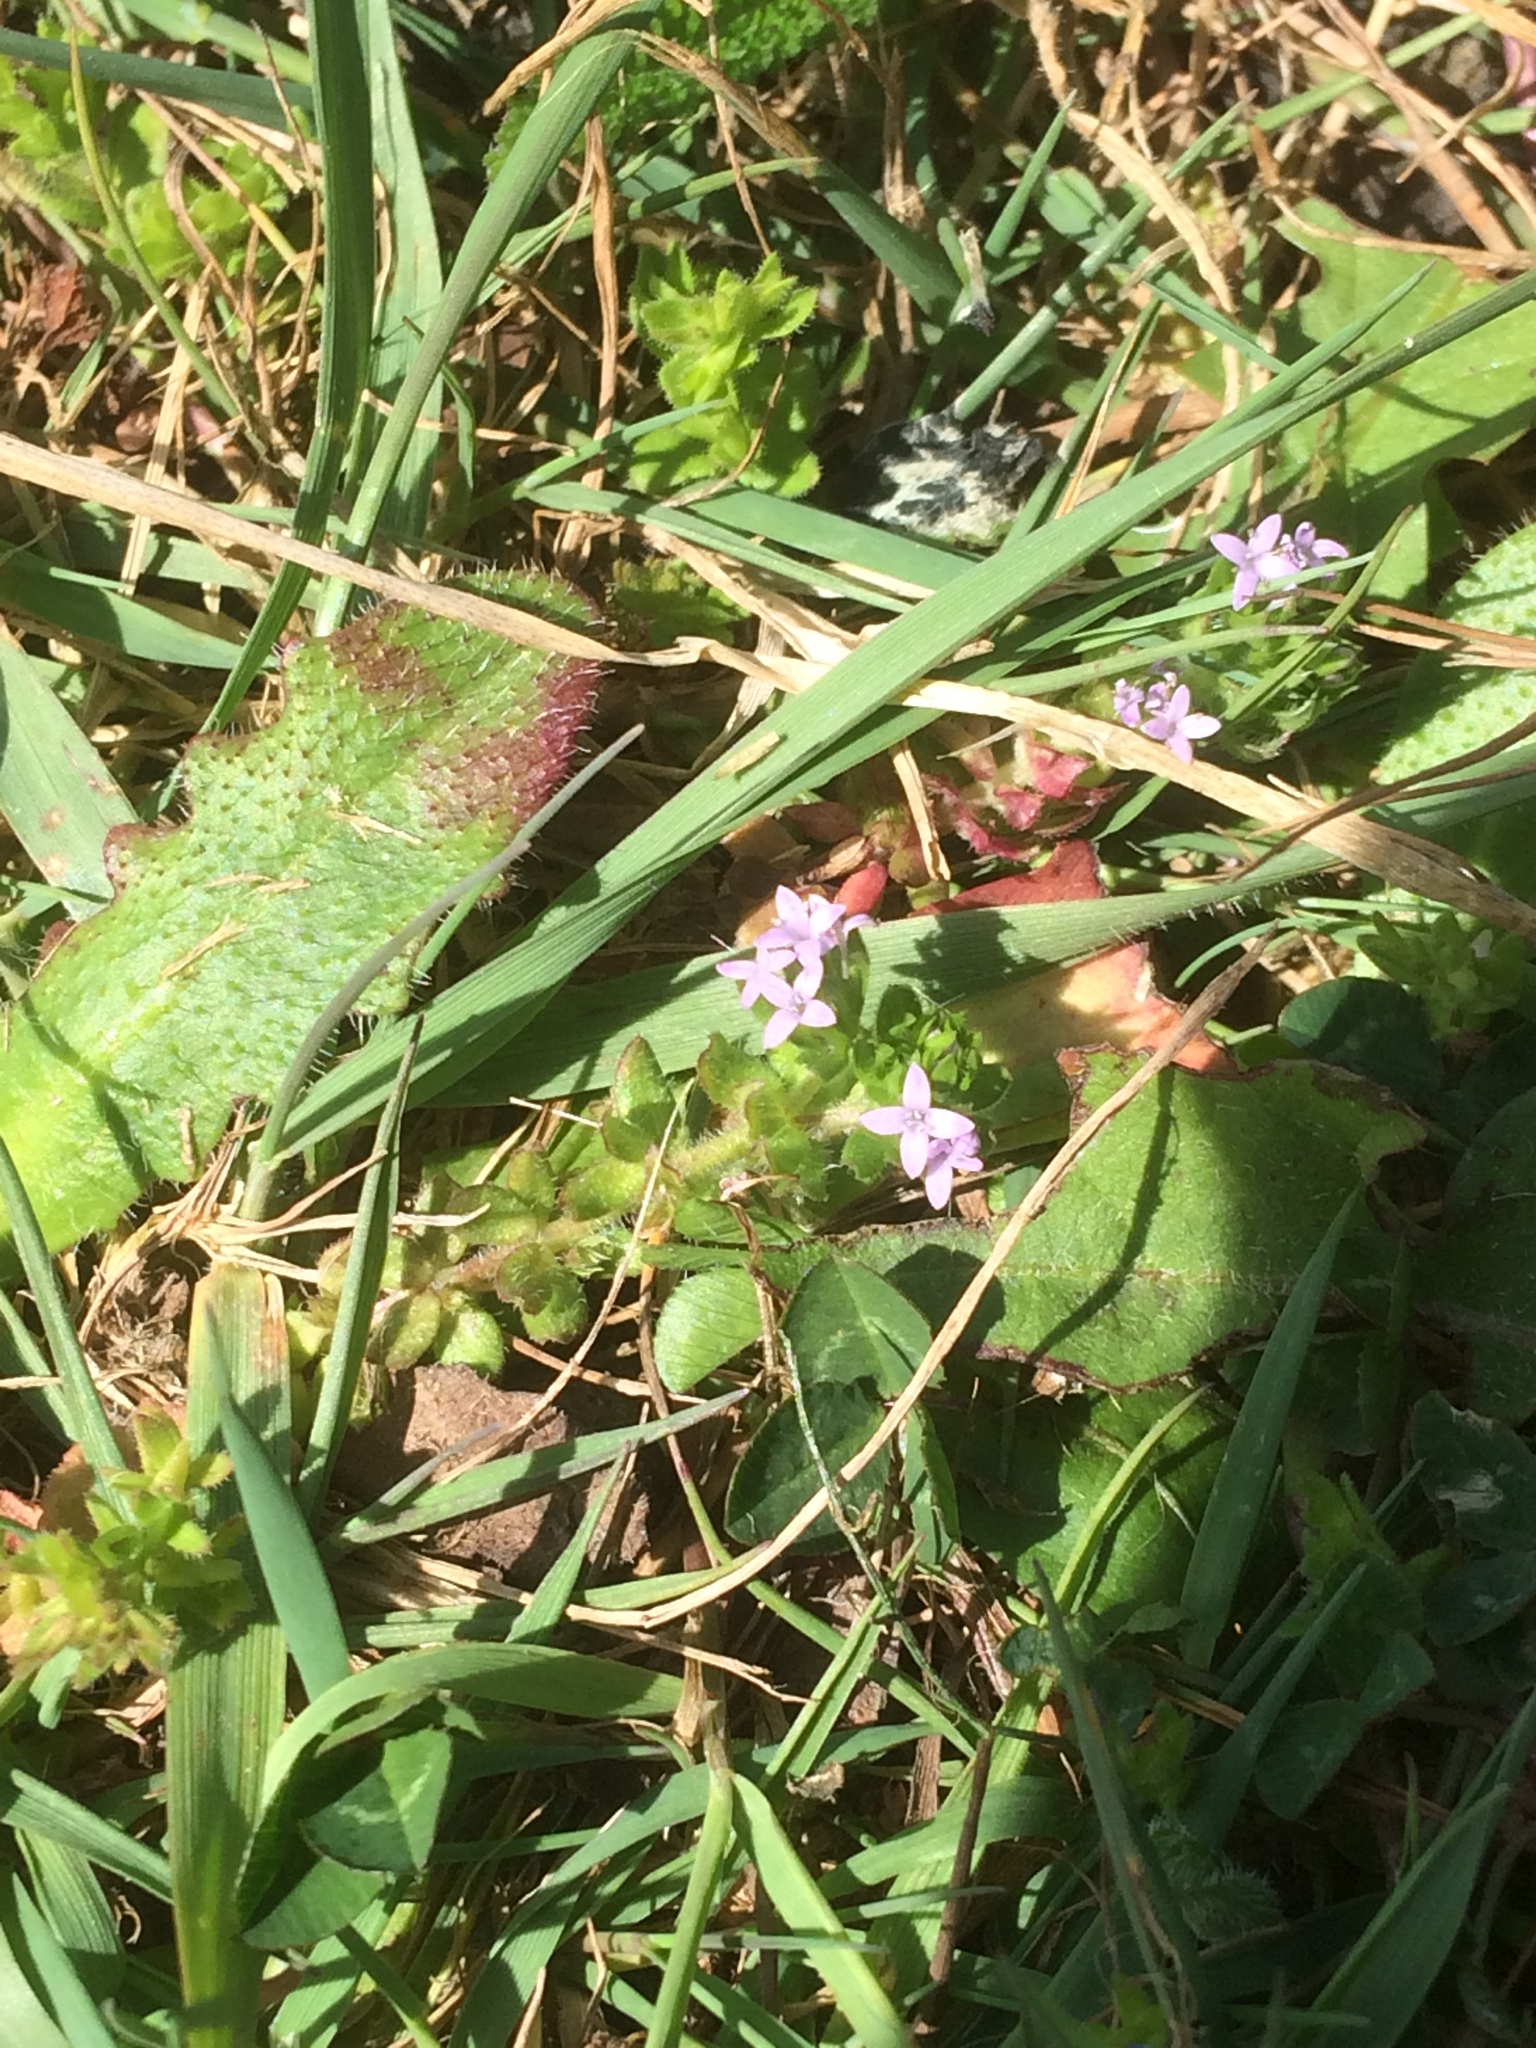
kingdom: Plantae
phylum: Tracheophyta
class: Magnoliopsida
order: Gentianales
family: Rubiaceae
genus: Sherardia
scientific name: Sherardia arvensis
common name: Field madder
